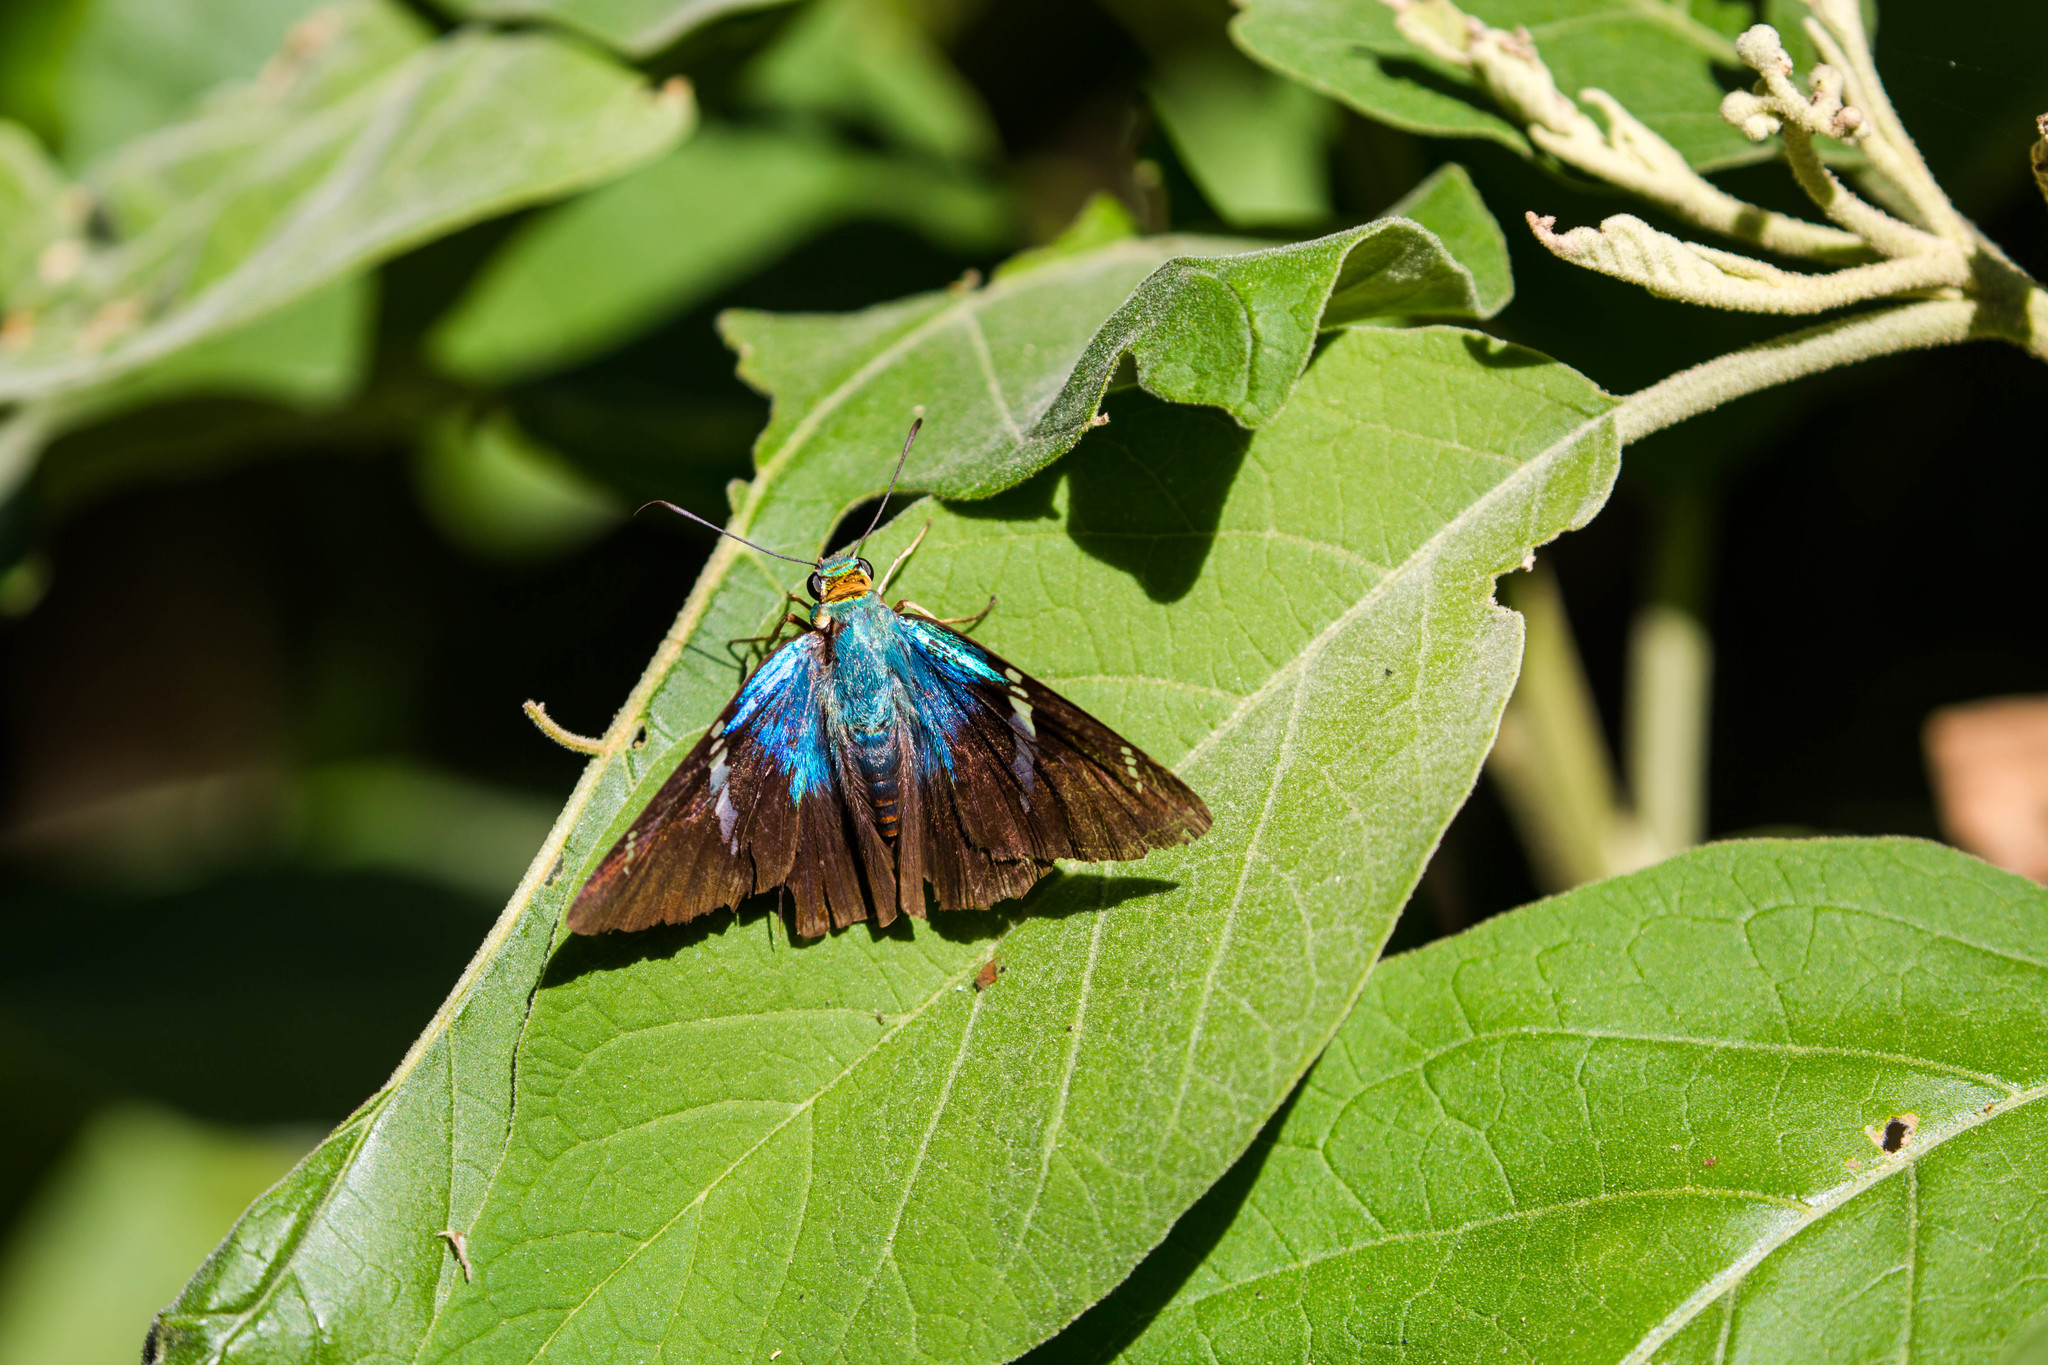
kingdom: Animalia
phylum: Arthropoda
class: Insecta
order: Lepidoptera
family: Hesperiidae
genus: Astraptes
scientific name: Astraptes fulgerator
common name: Two-barred flasher
